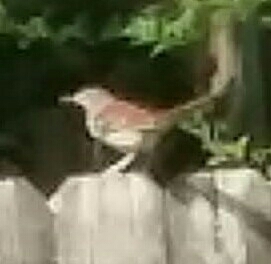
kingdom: Animalia
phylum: Chordata
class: Aves
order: Passeriformes
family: Mimidae
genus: Toxostoma
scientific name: Toxostoma rufum
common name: Brown thrasher
